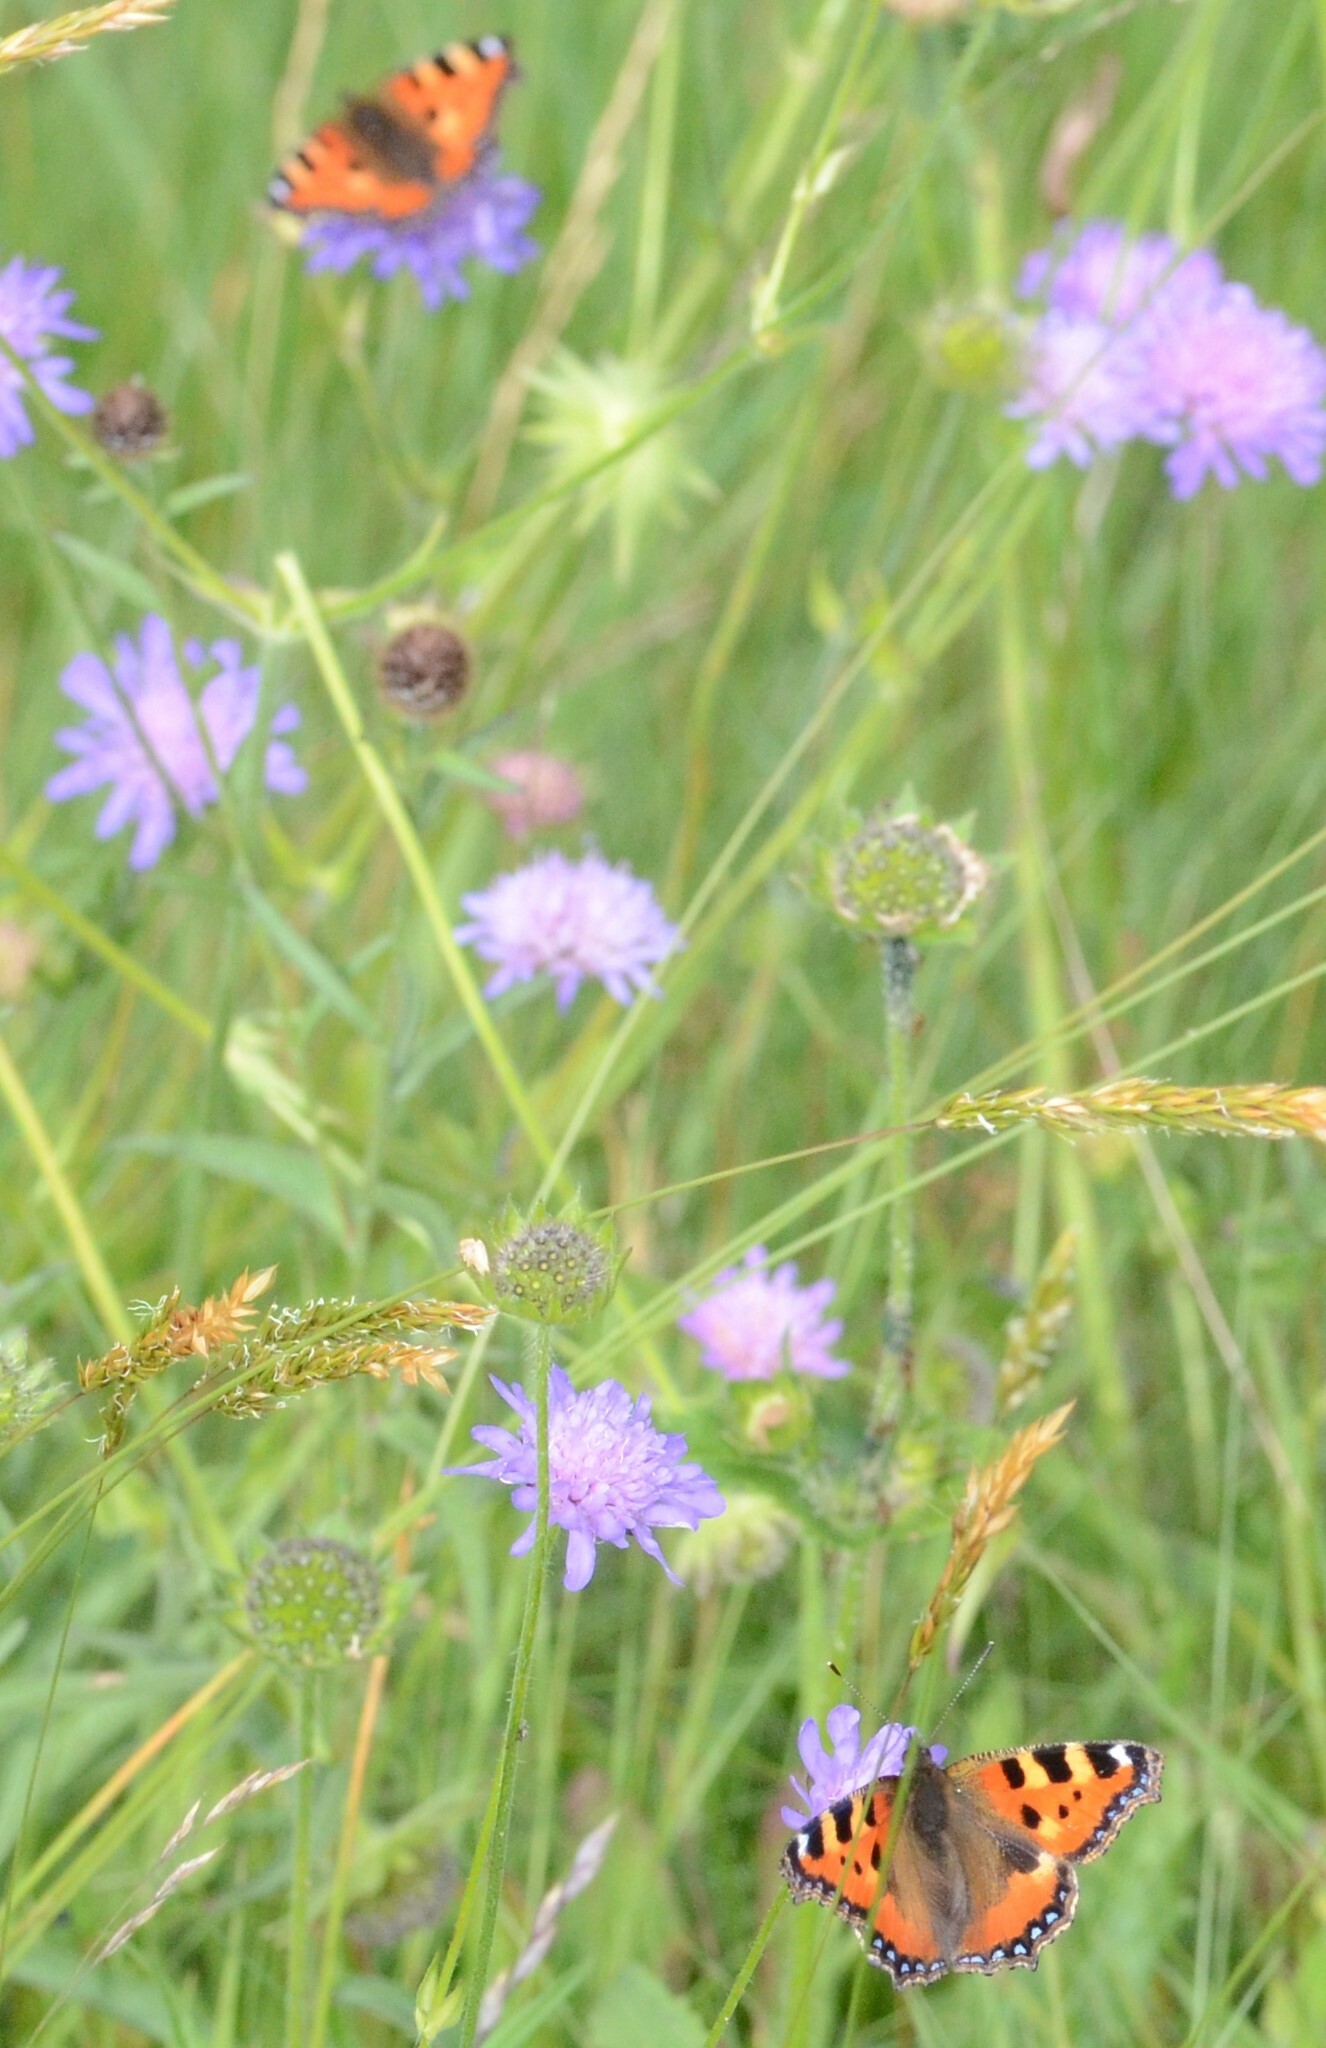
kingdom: Animalia
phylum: Arthropoda
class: Insecta
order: Lepidoptera
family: Nymphalidae
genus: Aglais
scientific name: Aglais urticae
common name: Small tortoiseshell
